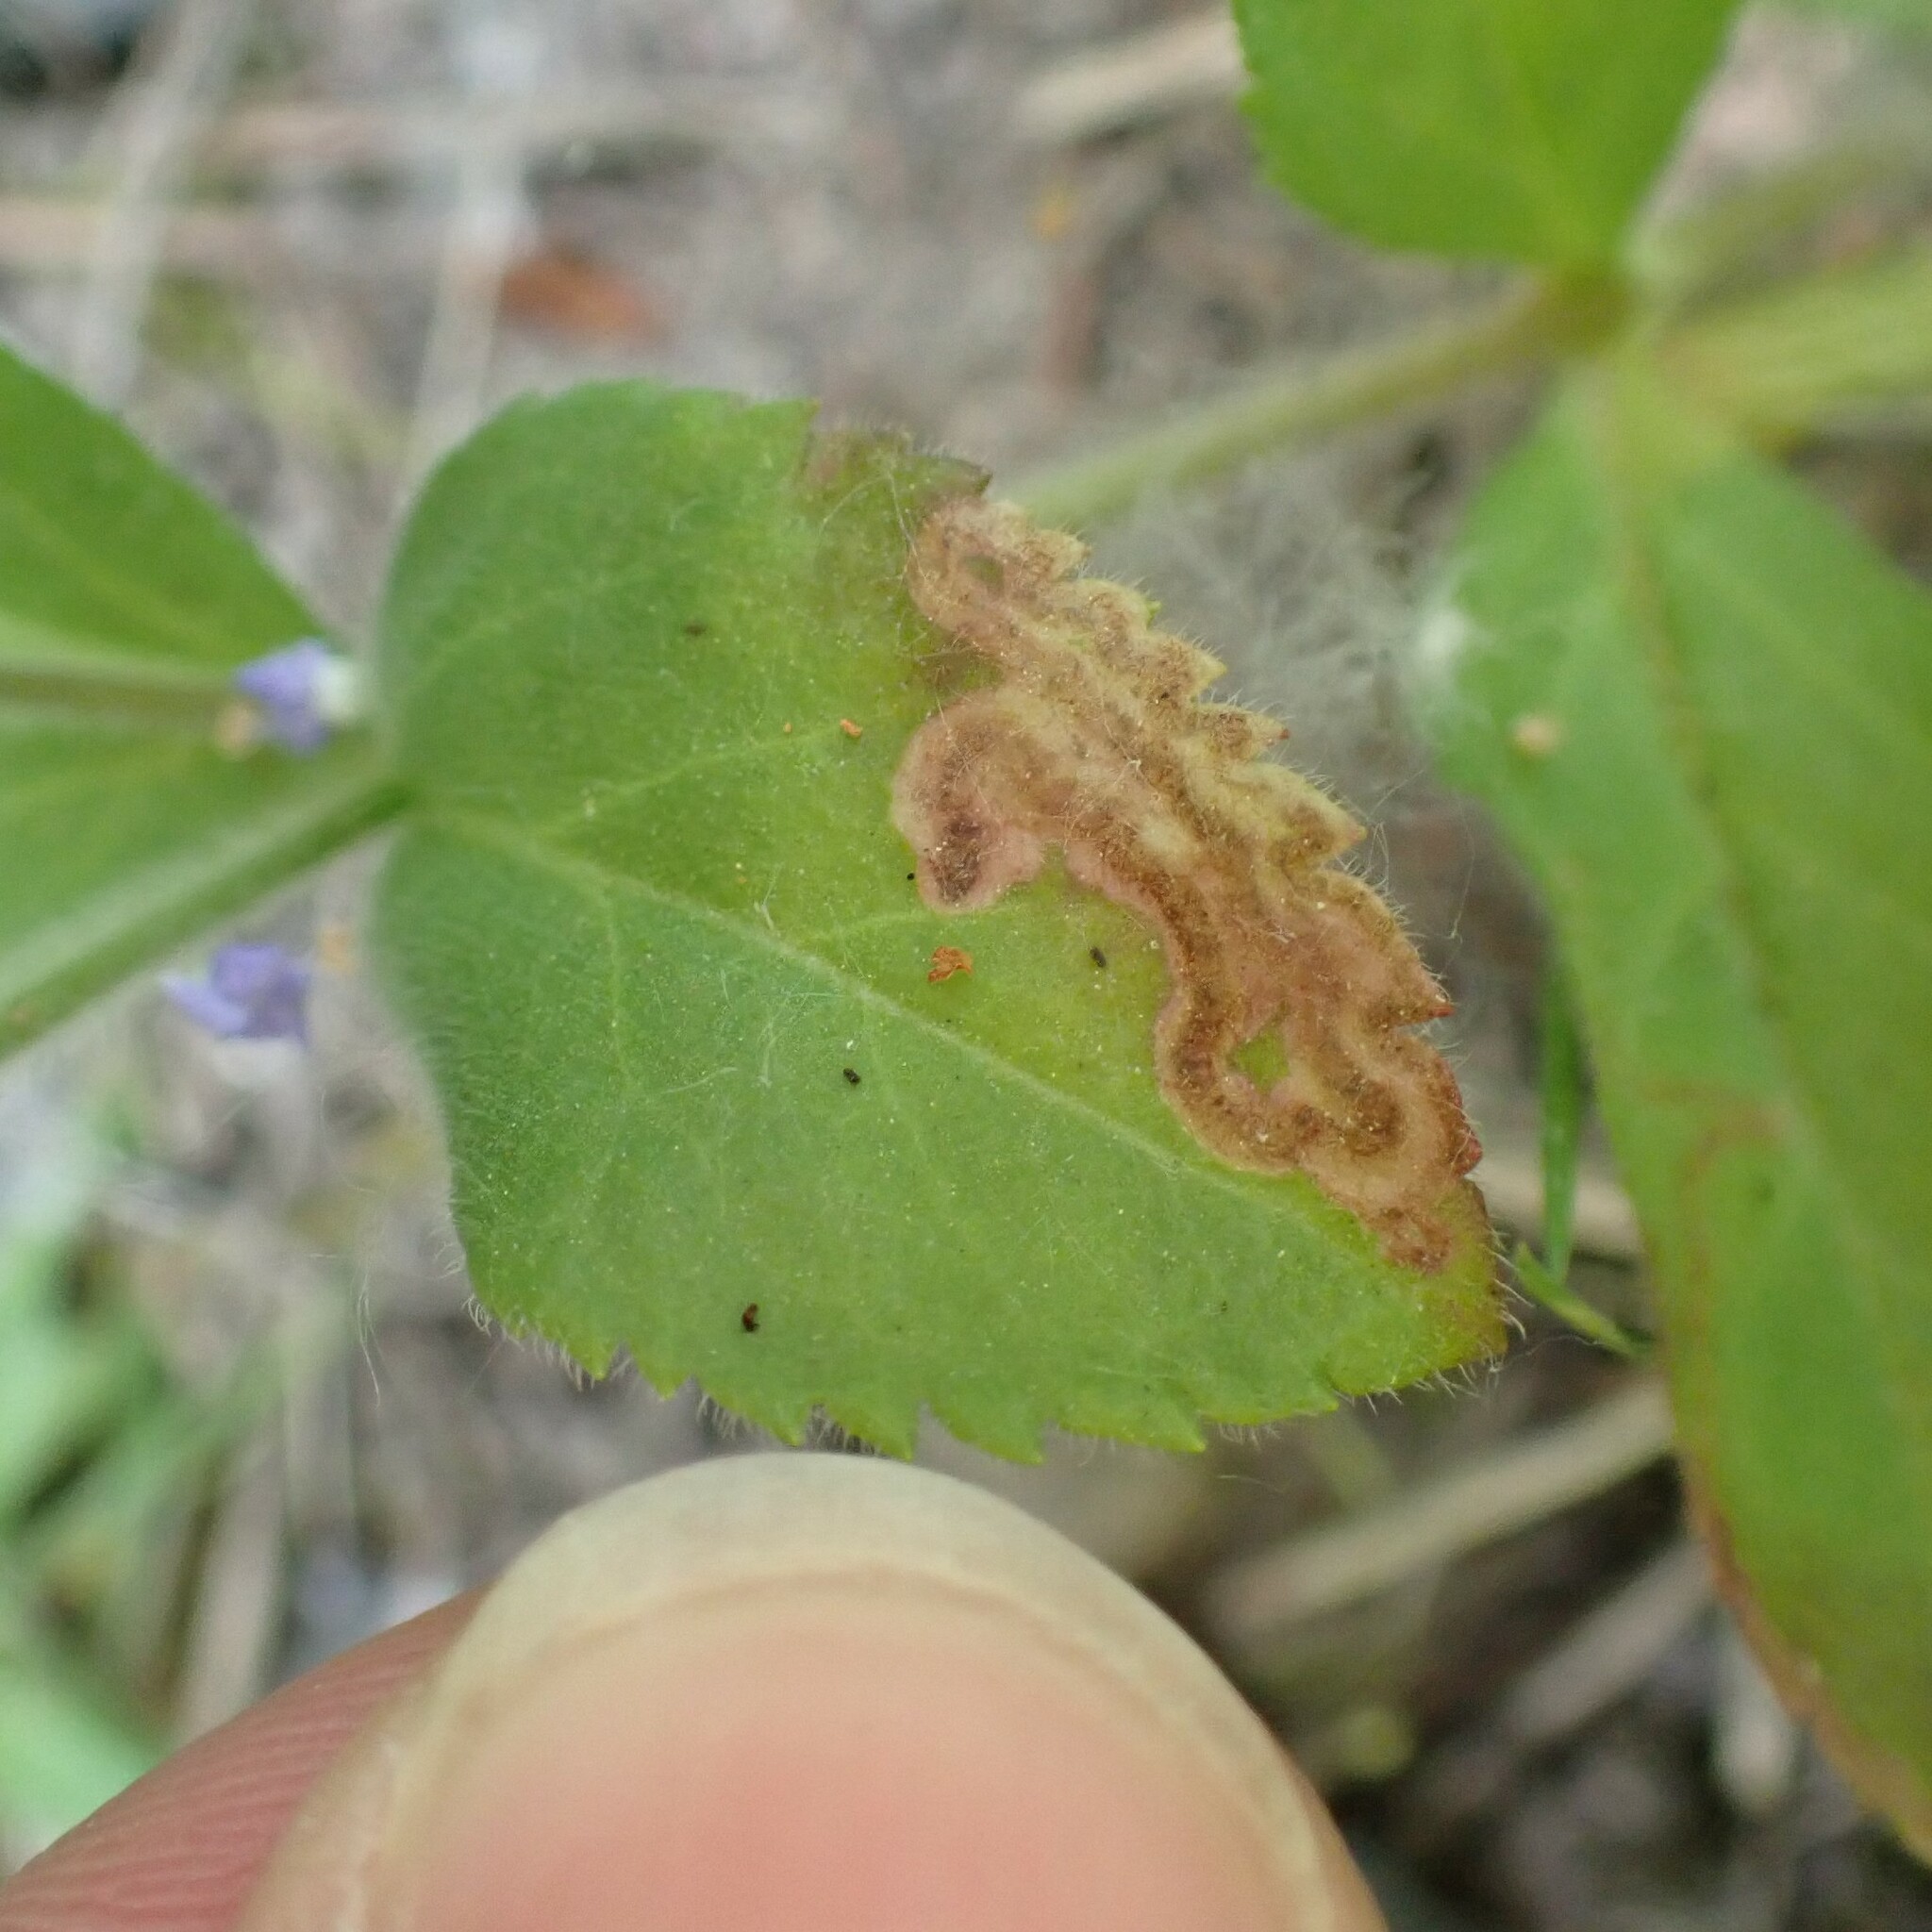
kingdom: Animalia
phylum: Arthropoda
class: Insecta
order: Diptera
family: Agromyzidae
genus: Phytomyza
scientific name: Phytomyza crassiseta
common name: Leaf-miner fly
